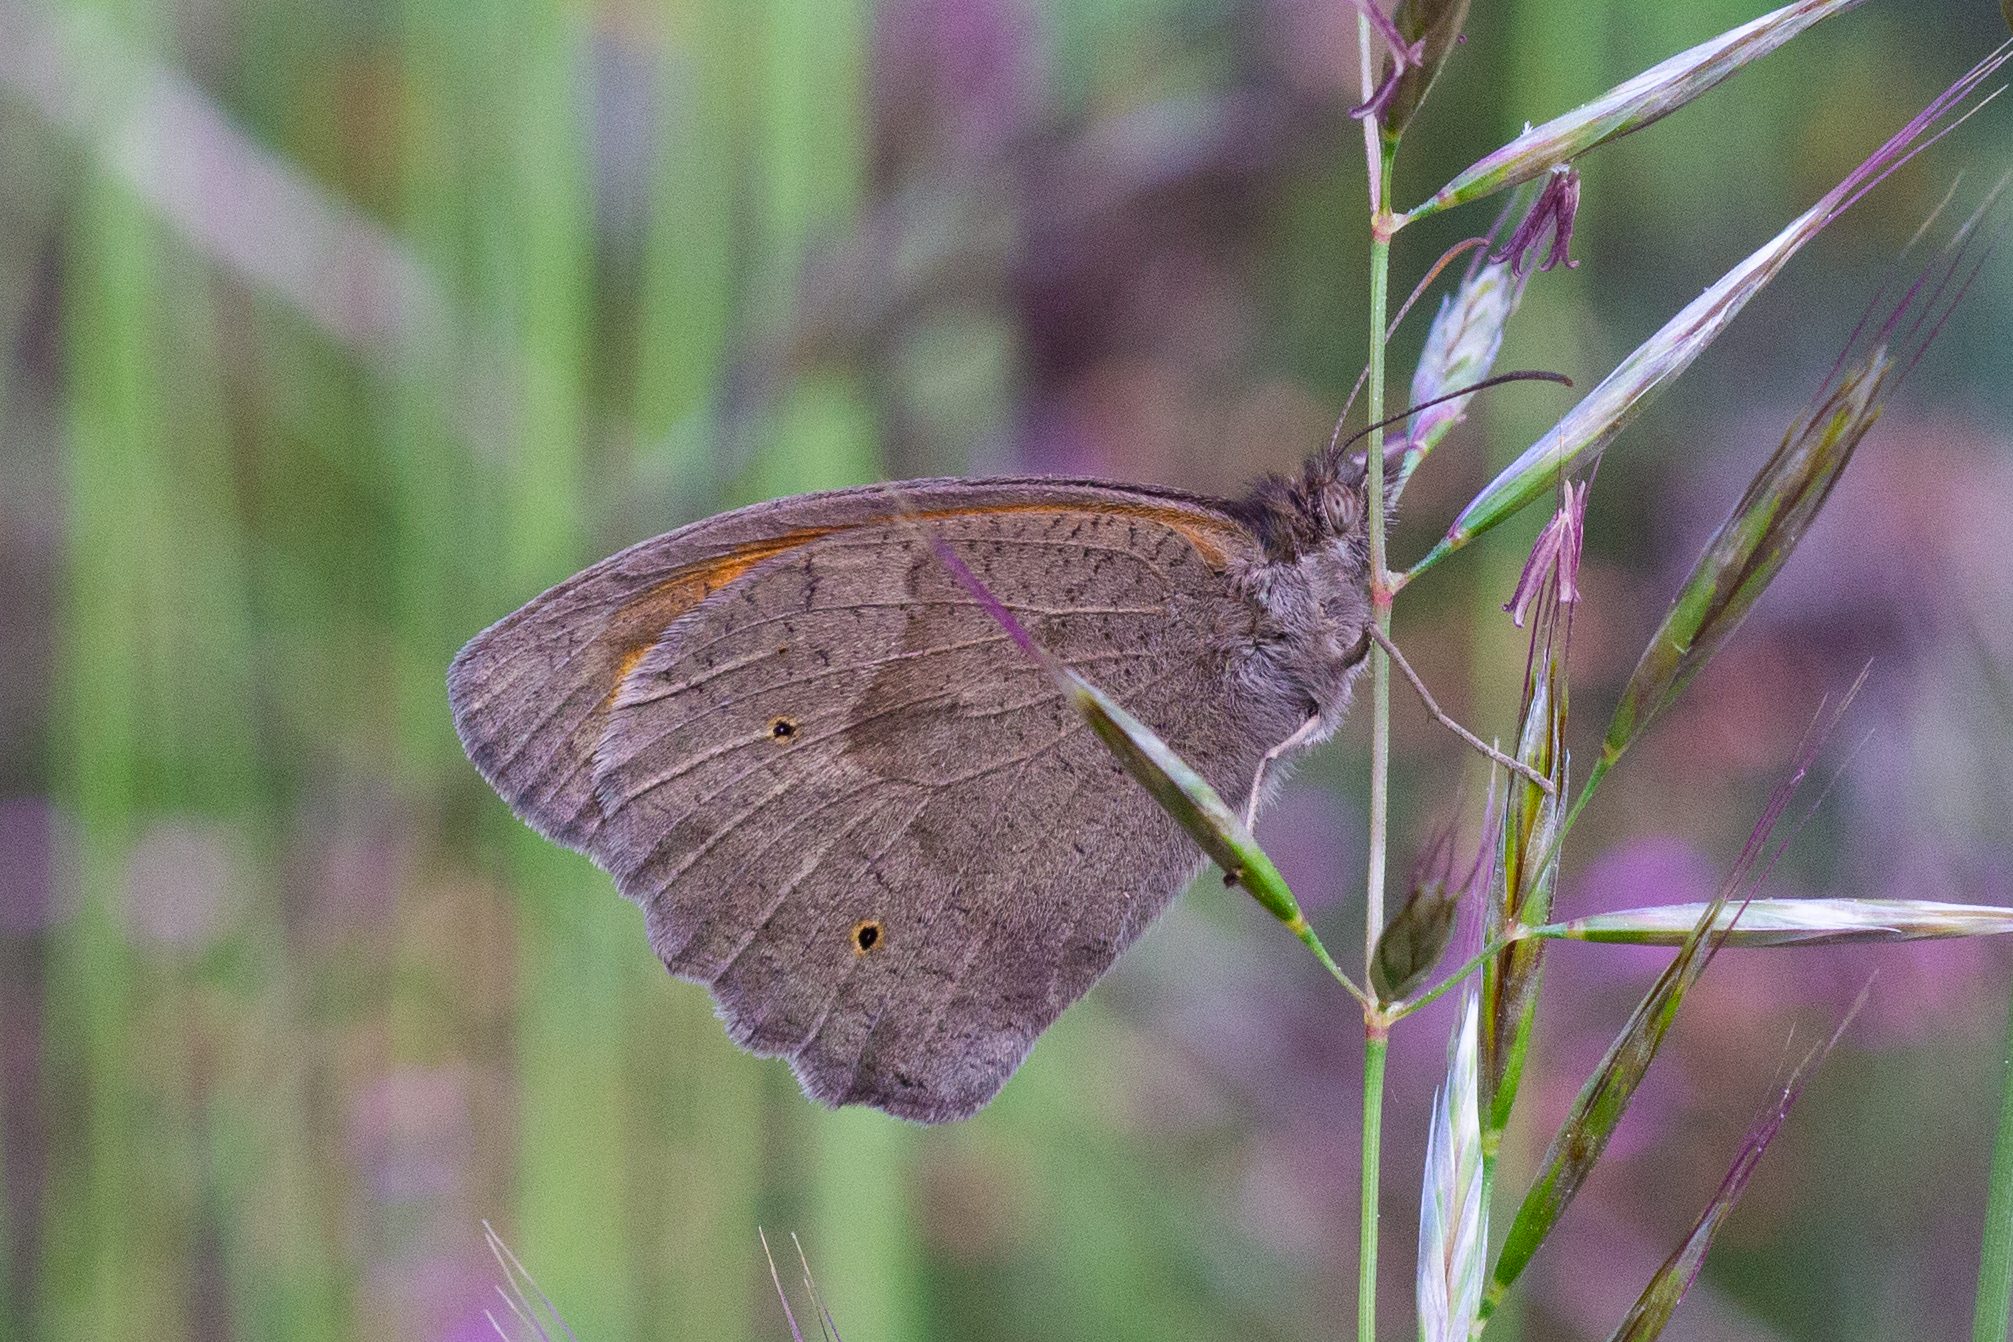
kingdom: Animalia
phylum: Arthropoda
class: Insecta
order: Lepidoptera
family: Nymphalidae
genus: Maniola
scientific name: Maniola jurtina
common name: Meadow brown
